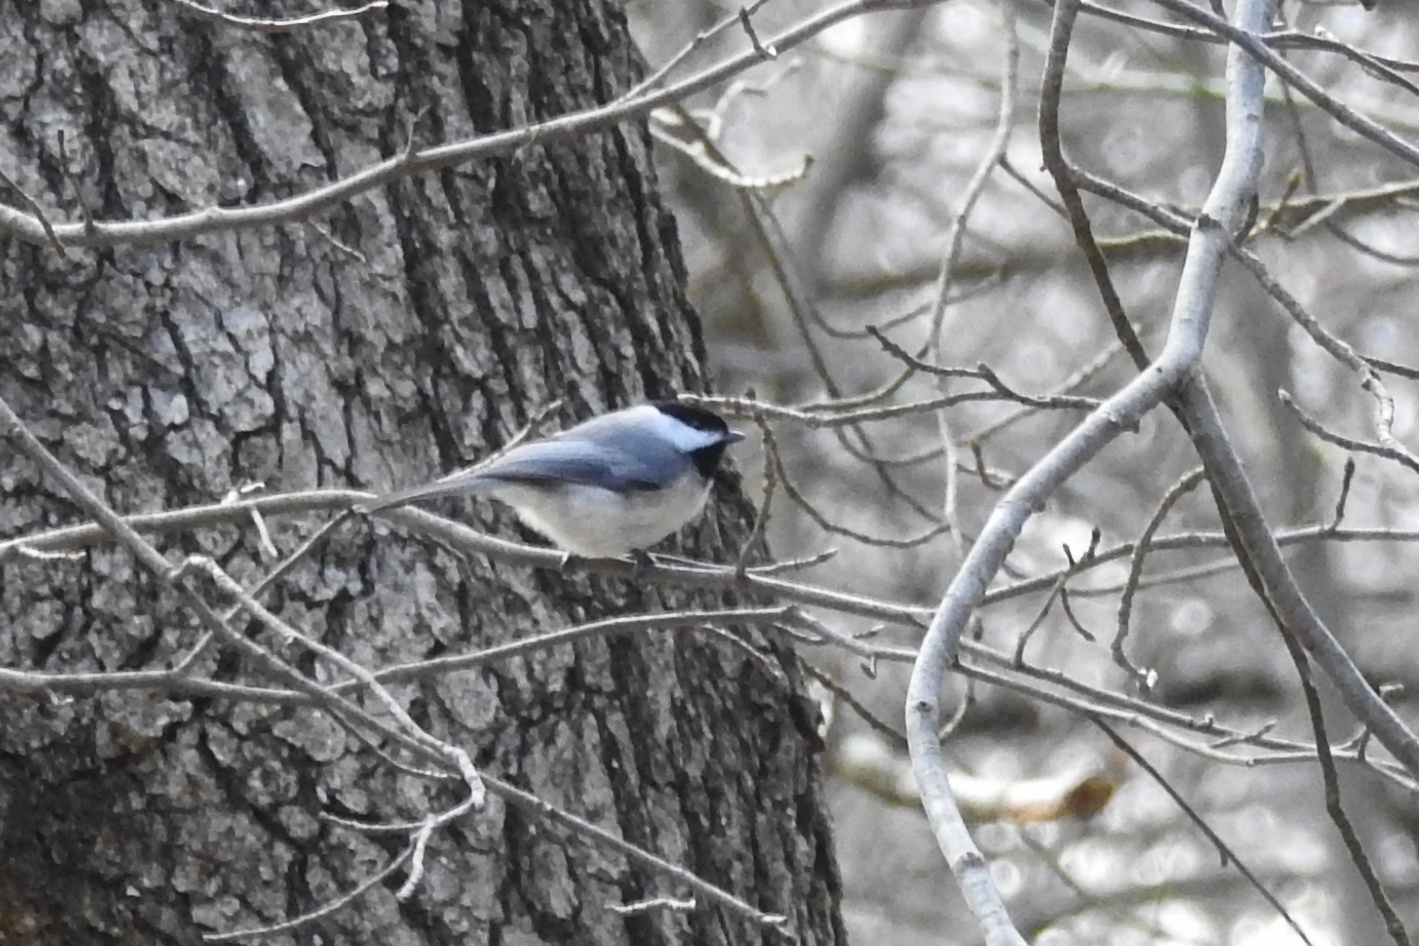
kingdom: Animalia
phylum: Chordata
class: Aves
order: Passeriformes
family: Paridae
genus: Poecile
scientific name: Poecile carolinensis
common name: Carolina chickadee
